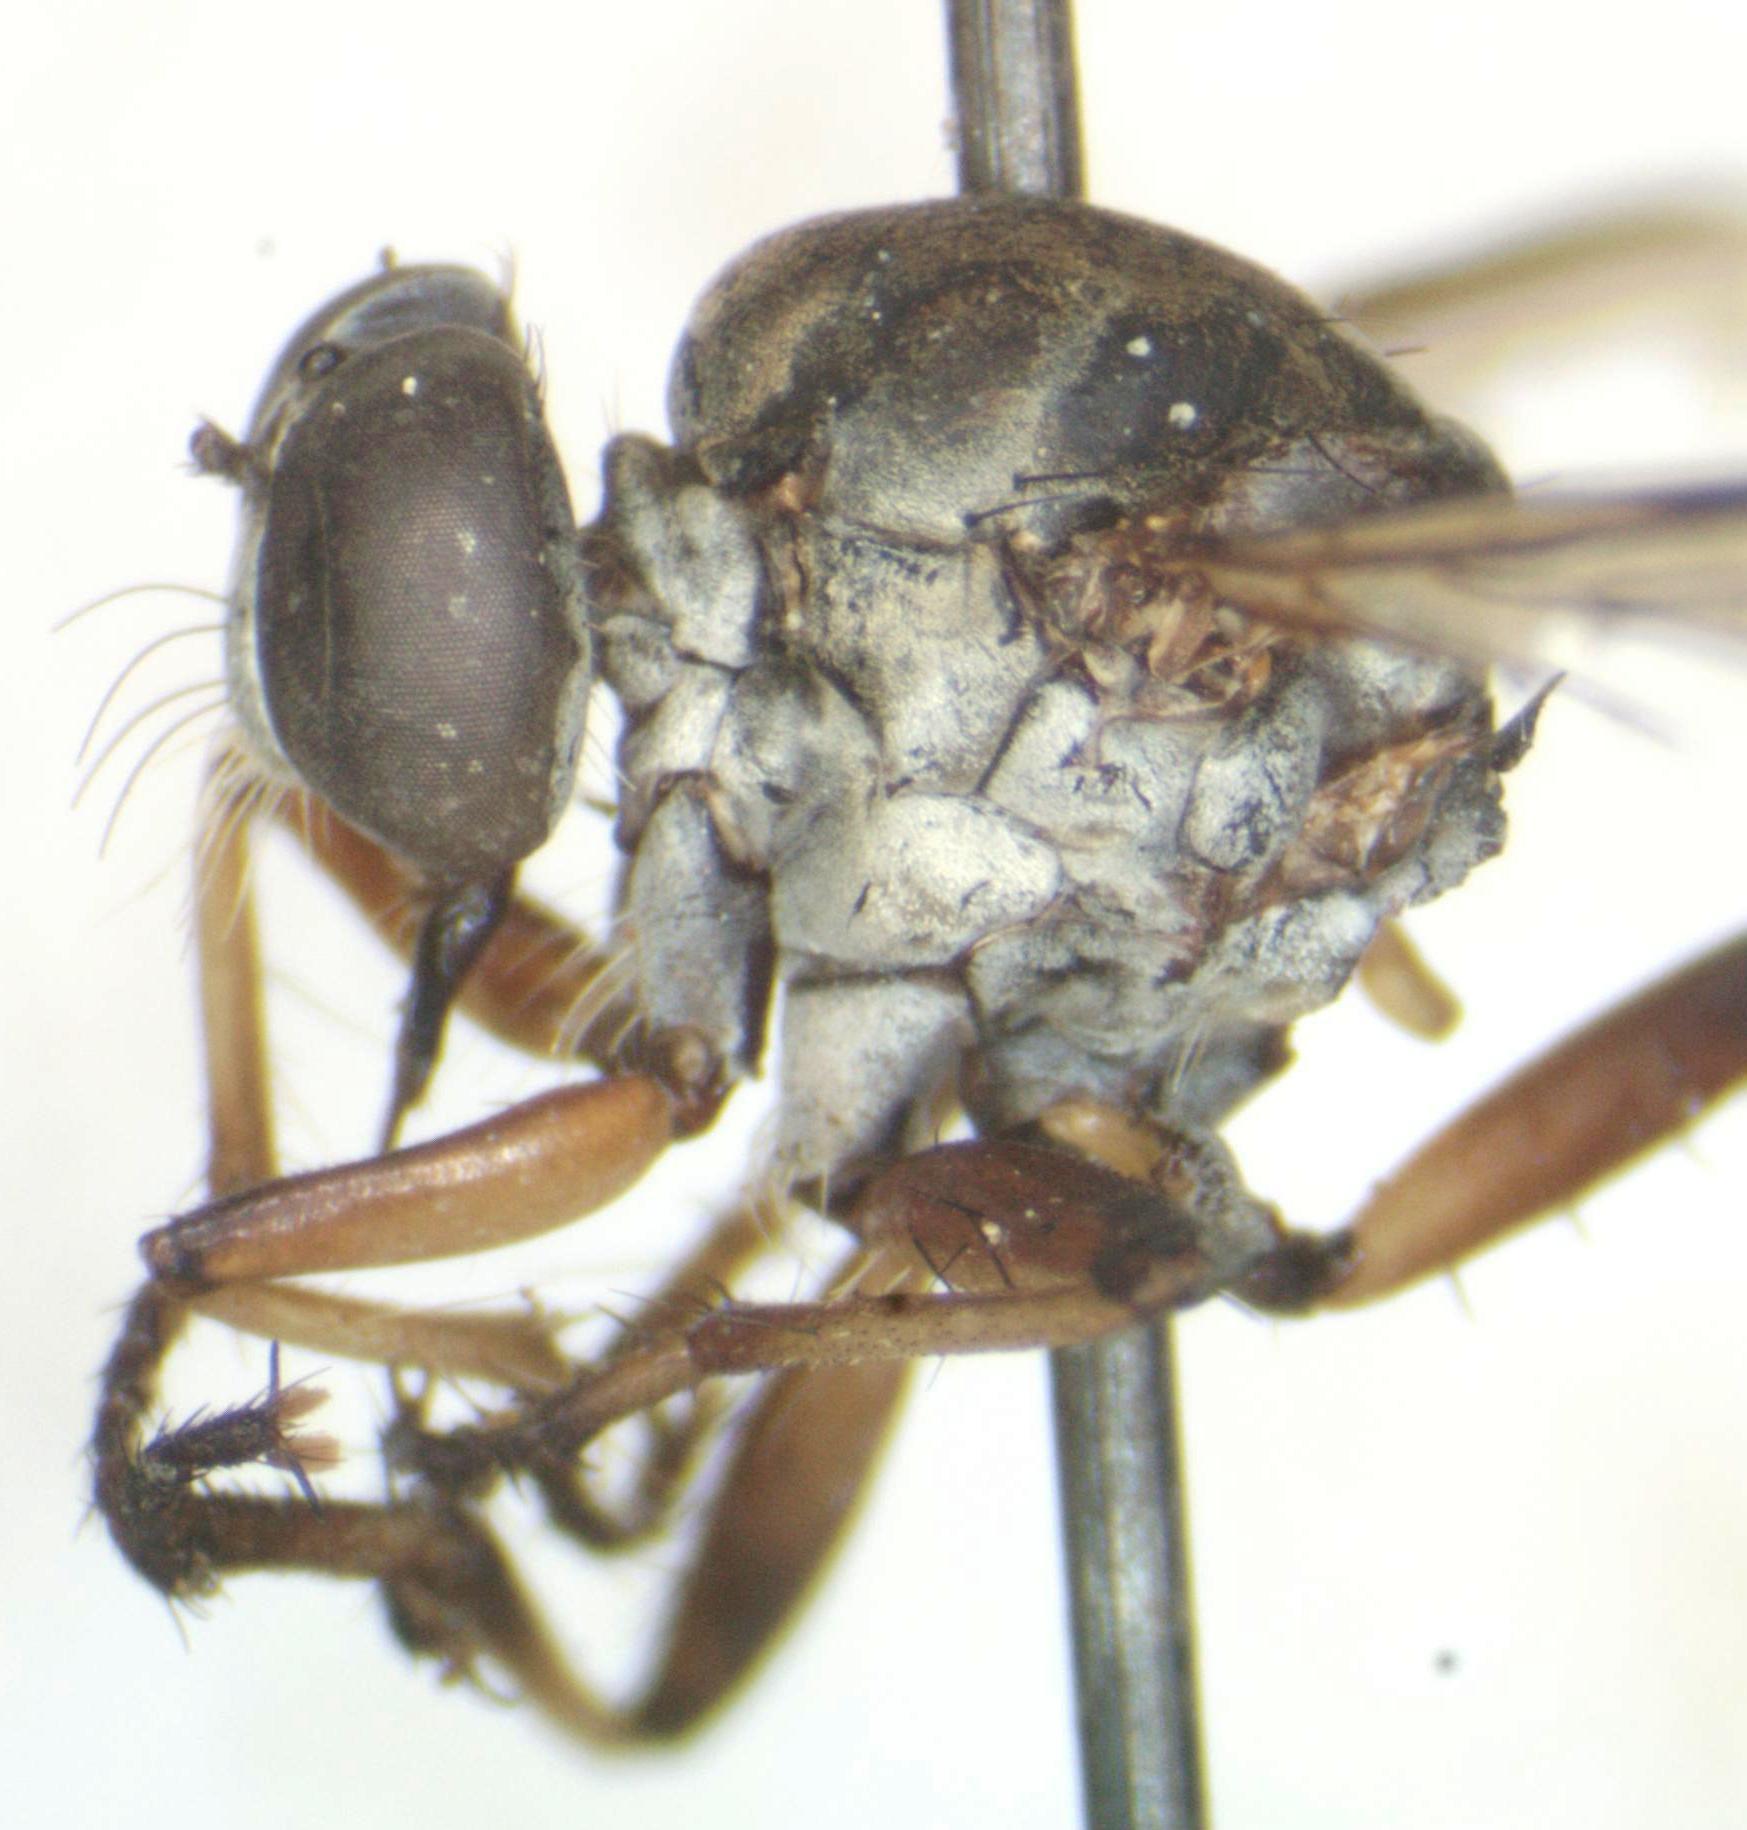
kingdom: Animalia
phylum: Arthropoda
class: Insecta
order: Diptera
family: Asilidae
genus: Ommatius
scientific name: Ommatius orenoquensis
